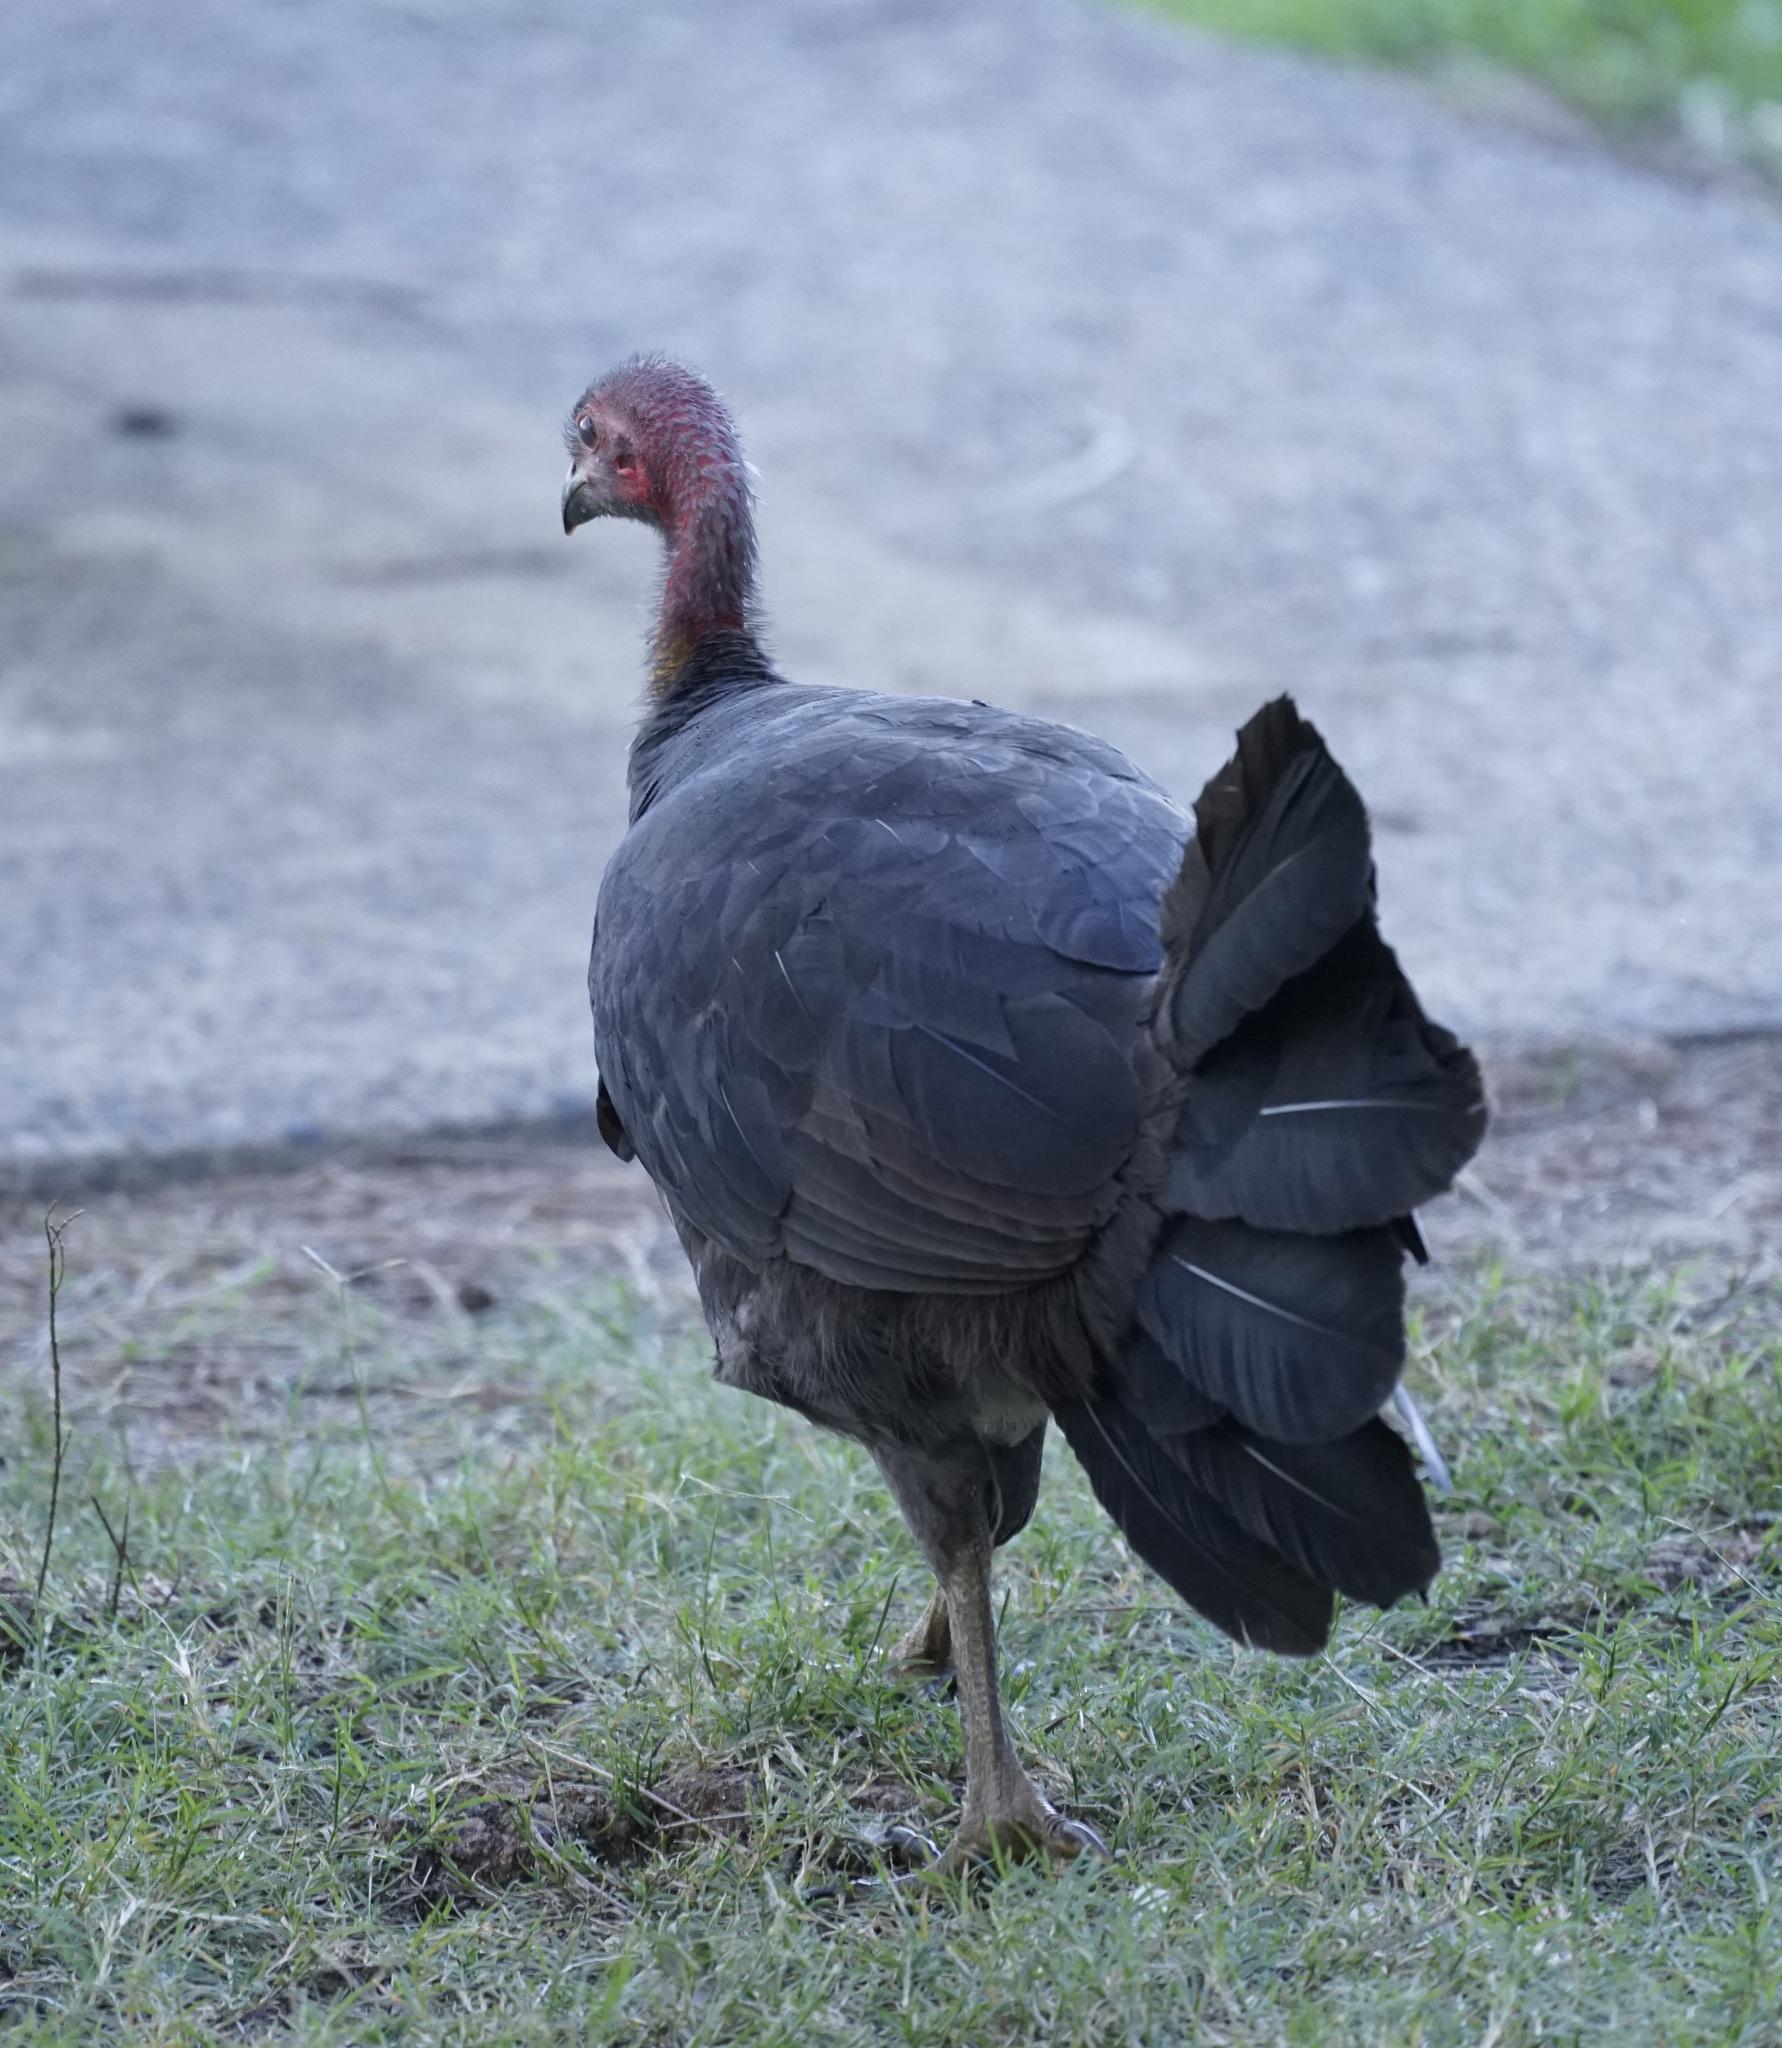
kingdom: Animalia
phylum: Chordata
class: Aves
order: Galliformes
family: Megapodiidae
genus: Alectura
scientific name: Alectura lathami
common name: Australian brushturkey
